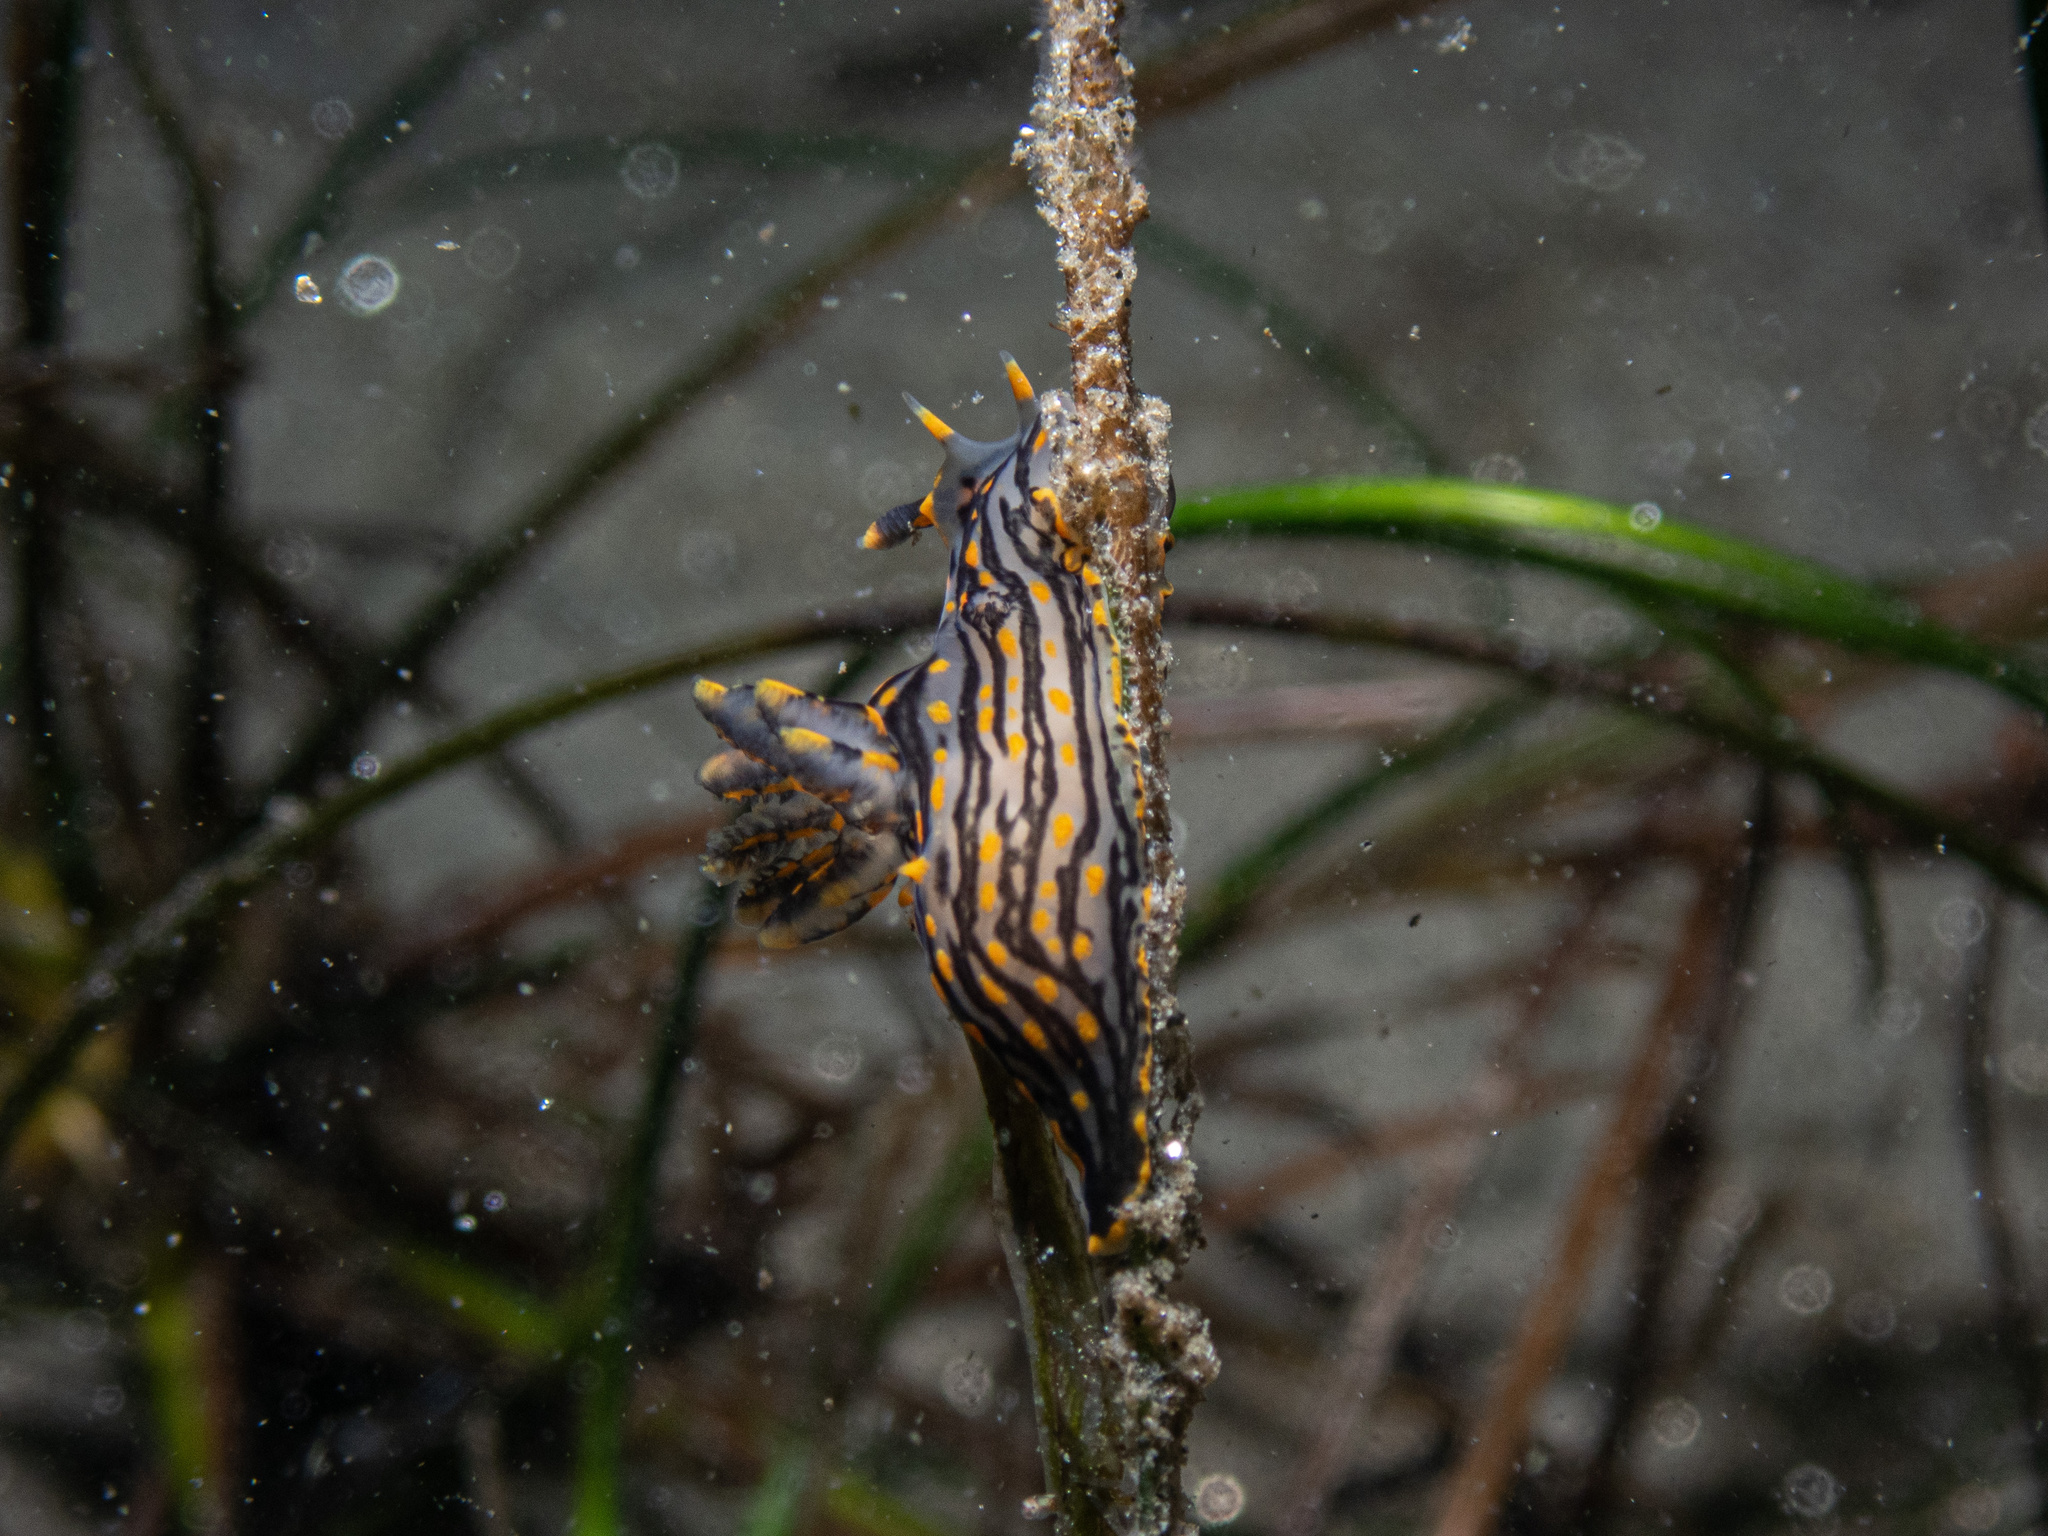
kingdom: Animalia
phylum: Mollusca
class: Gastropoda
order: Nudibranchia
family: Polyceridae
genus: Polycera
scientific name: Polycera atra
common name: Orange-spike polycera
